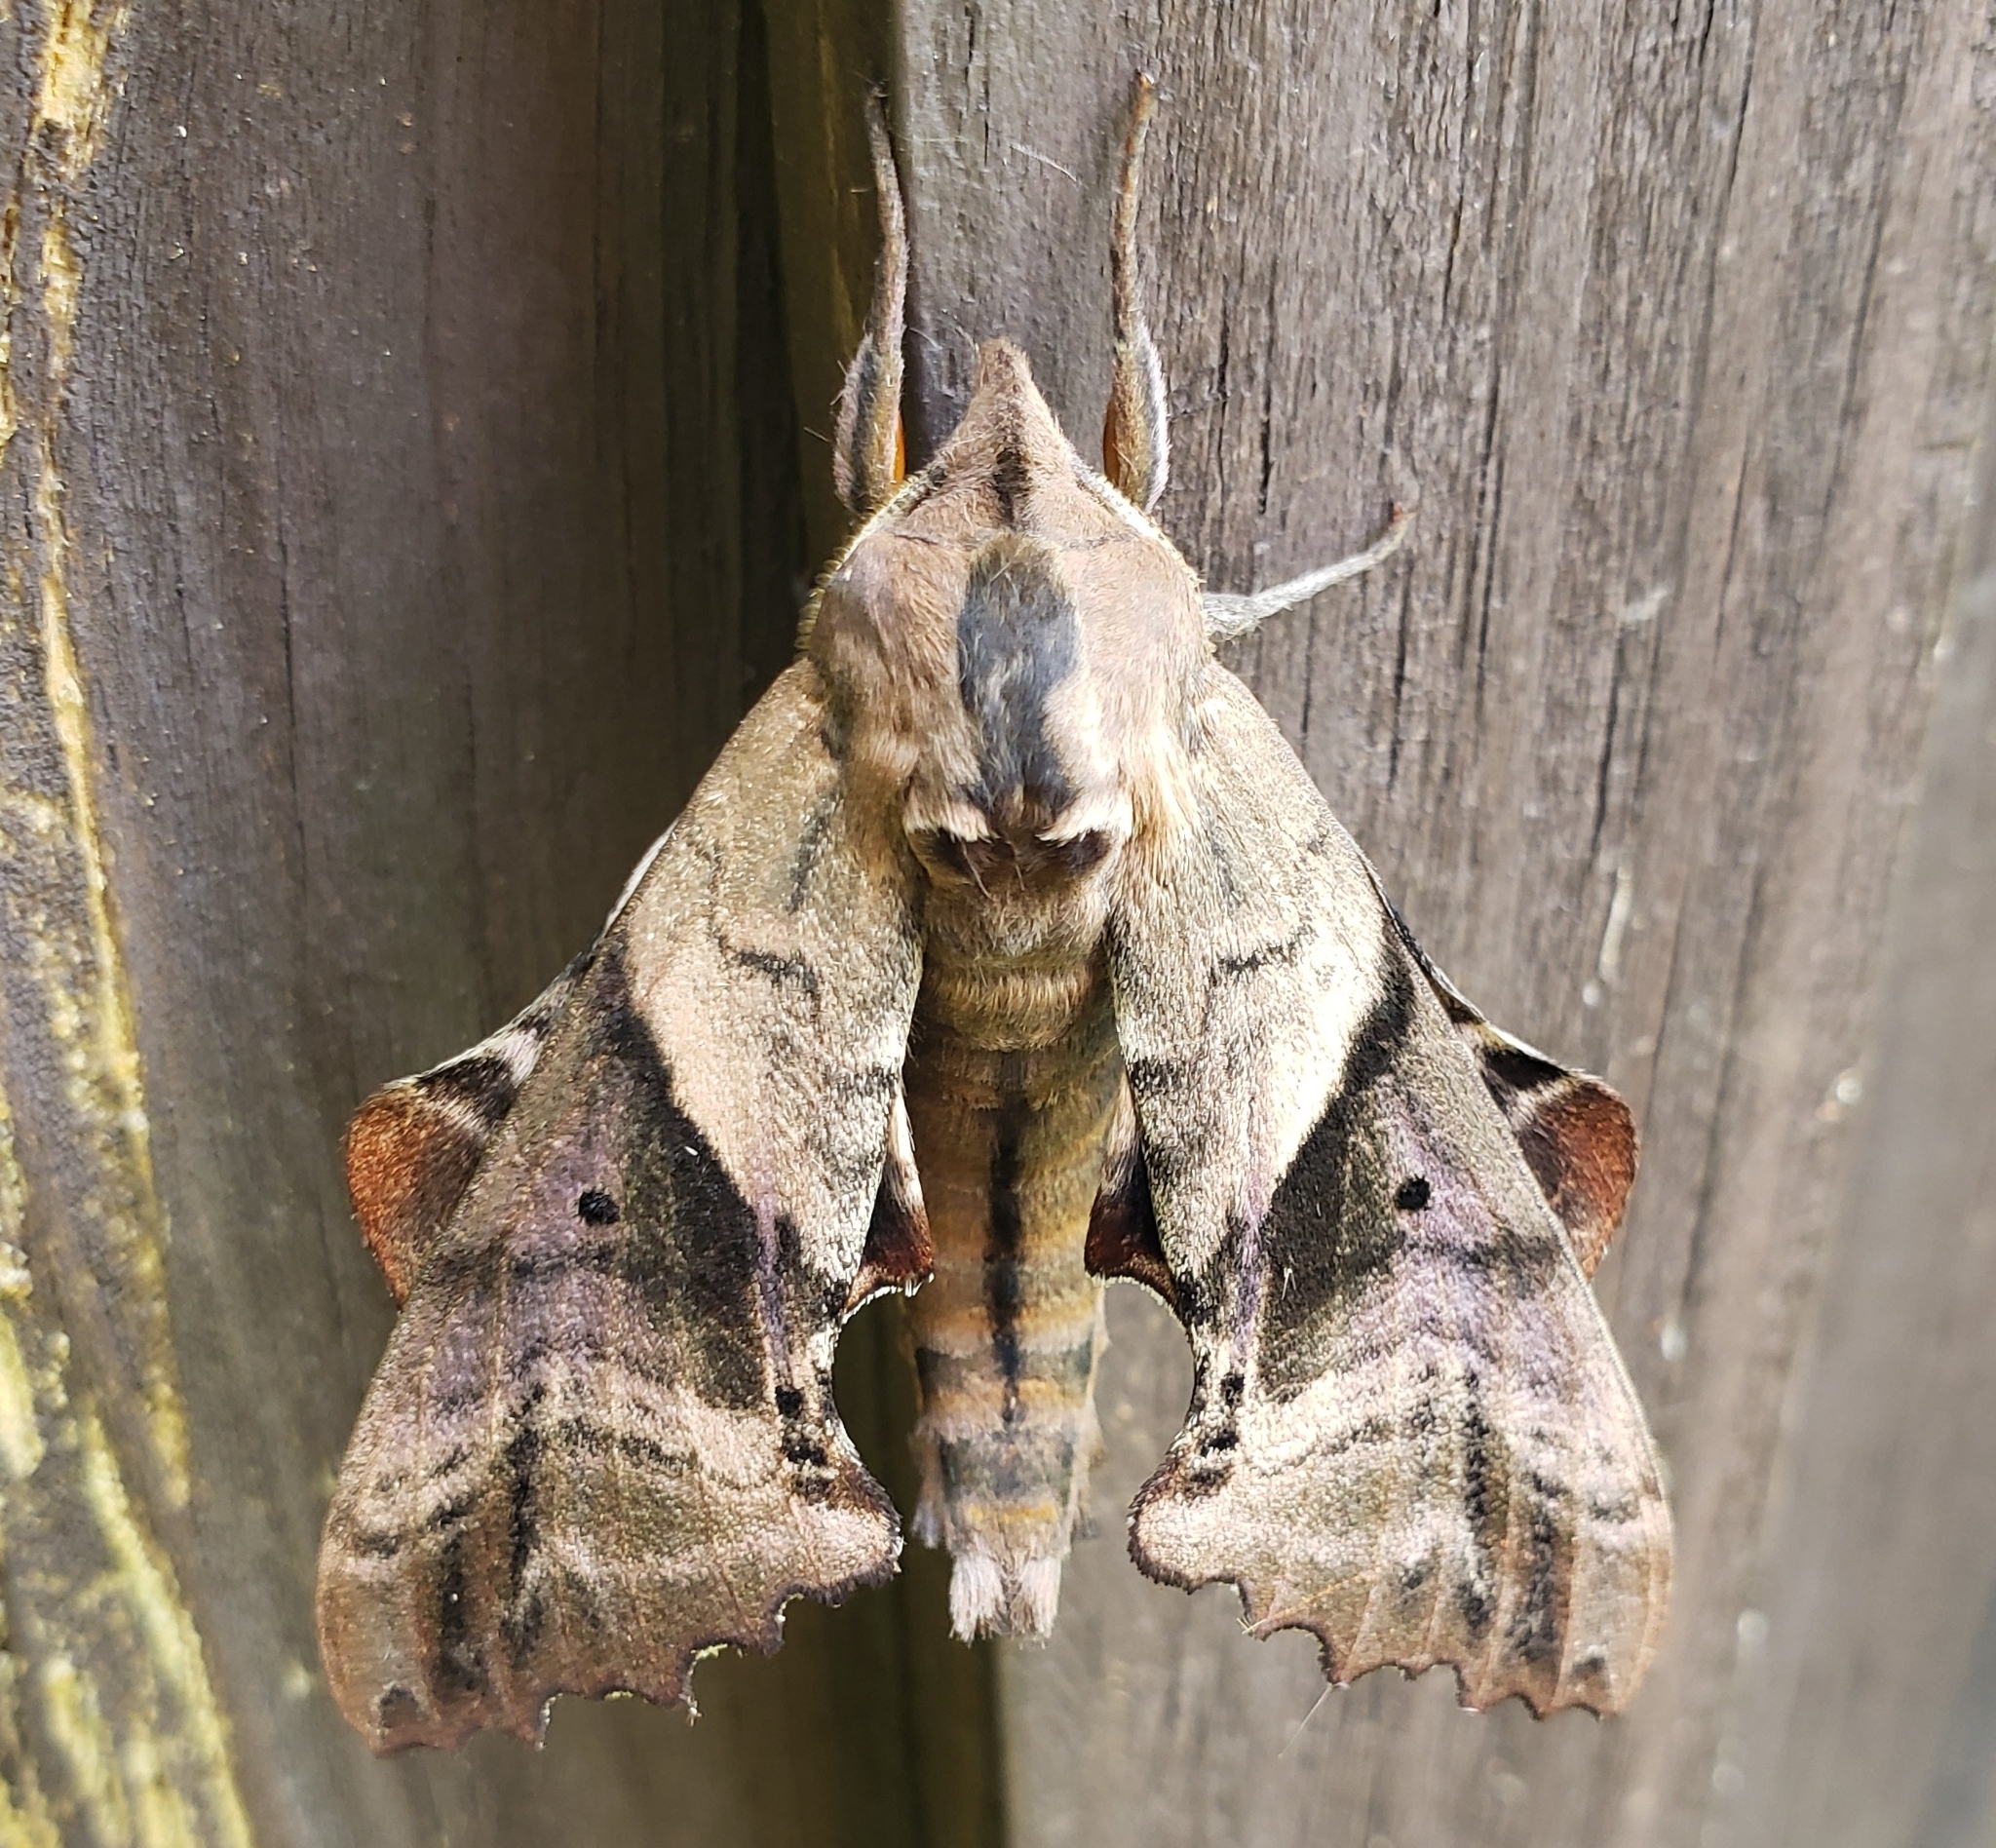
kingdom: Animalia
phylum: Arthropoda
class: Insecta
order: Lepidoptera
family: Sphingidae
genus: Paonias
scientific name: Paonias excaecata
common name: Blind-eyed sphinx
